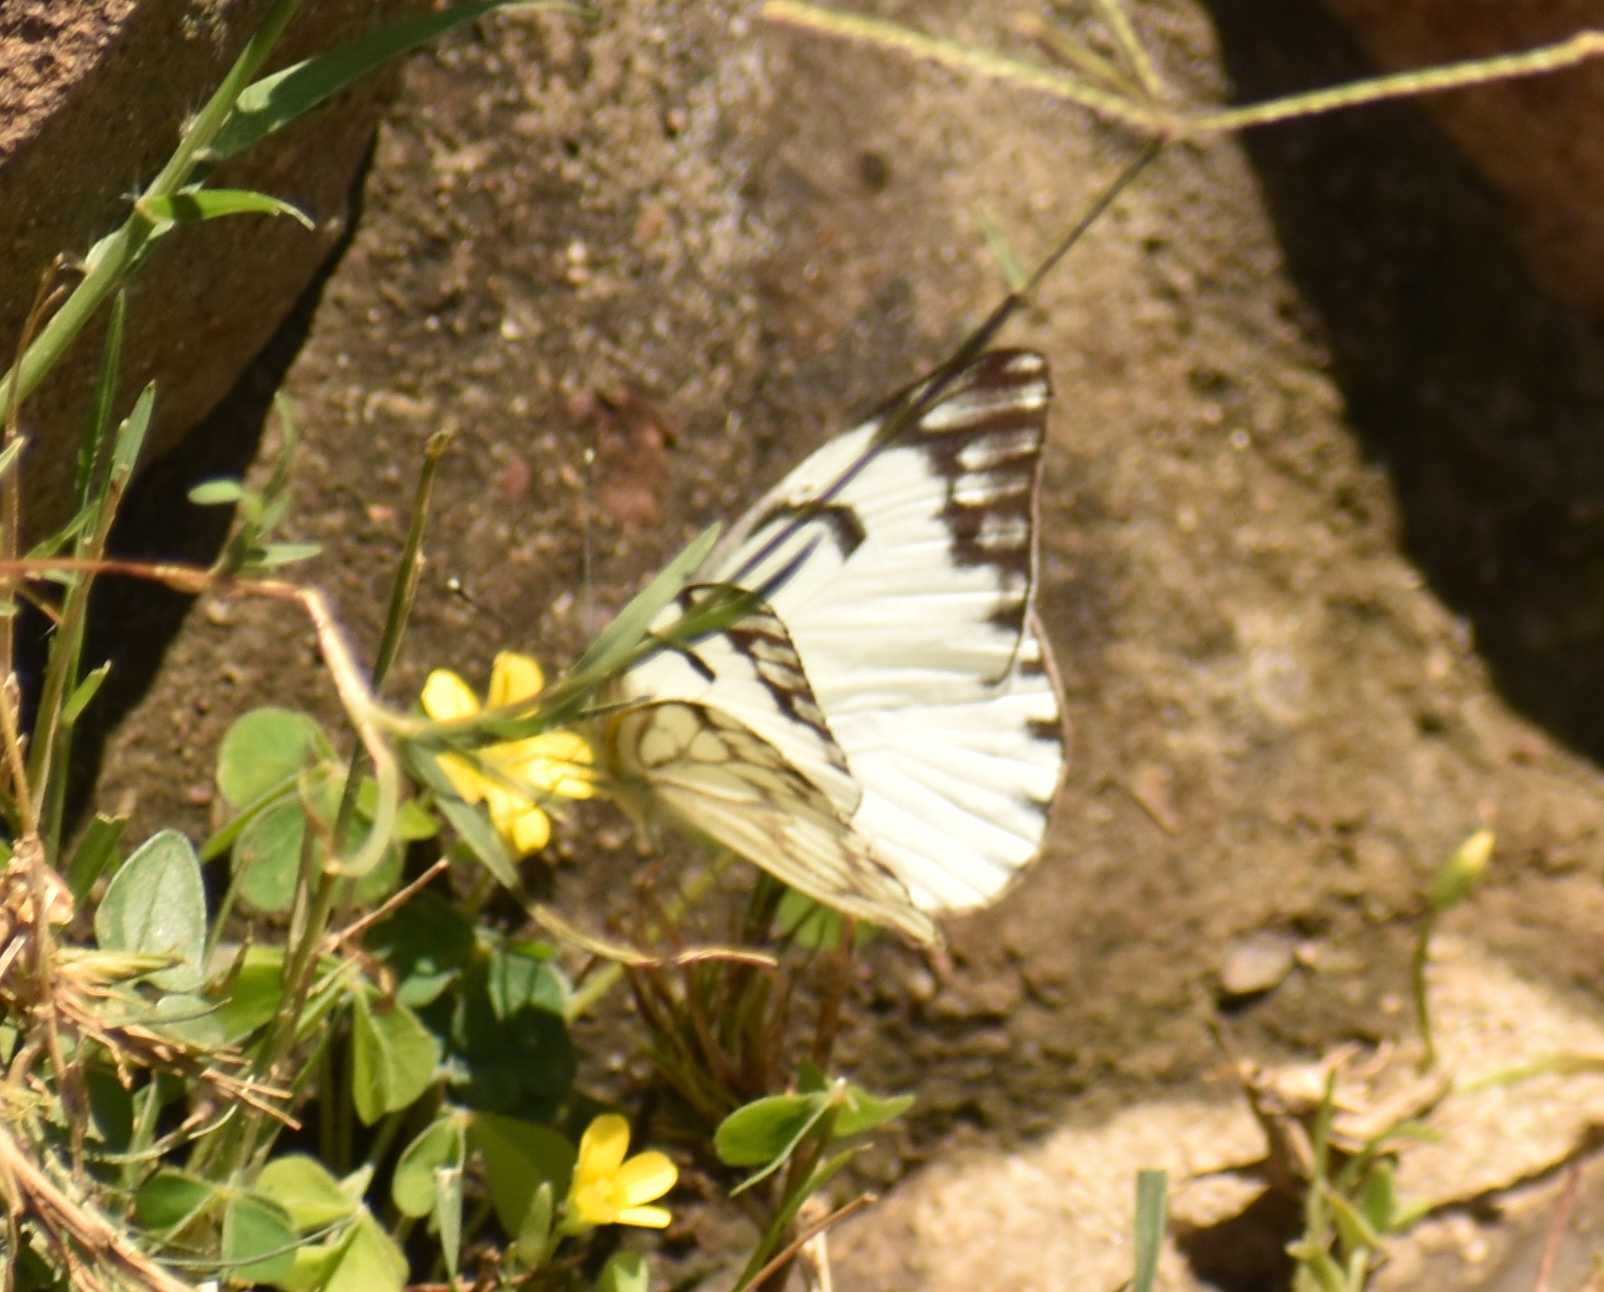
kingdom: Animalia
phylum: Arthropoda
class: Insecta
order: Lepidoptera
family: Pieridae
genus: Belenois
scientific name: Belenois creona
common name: African caper white
